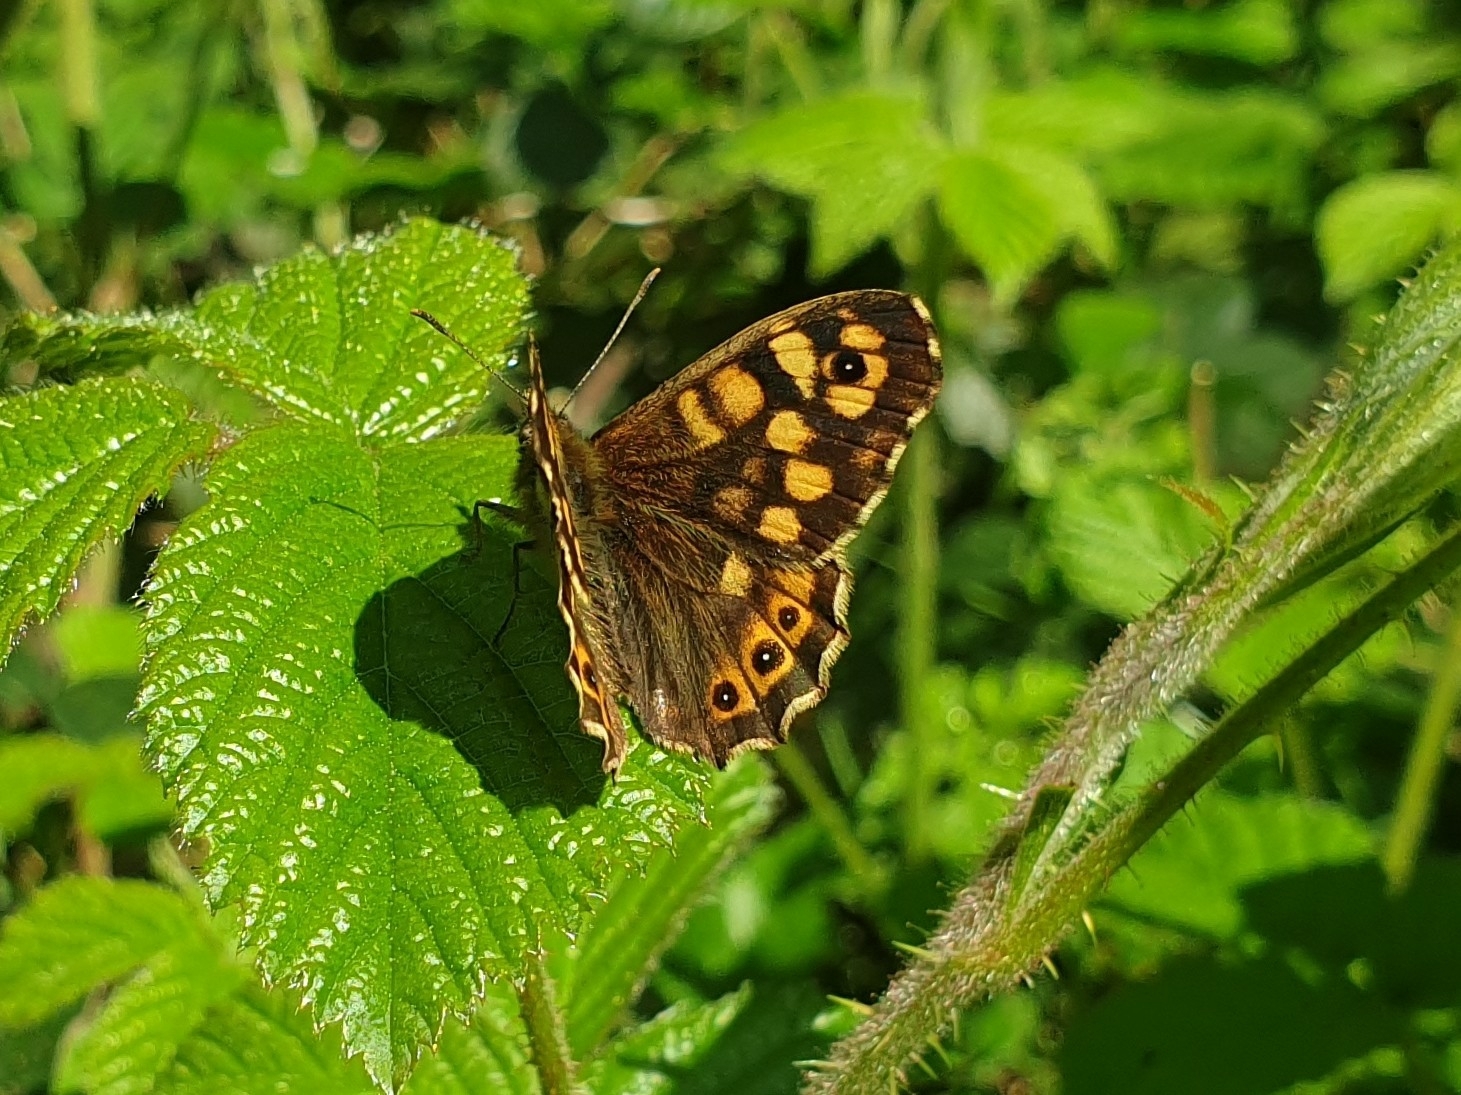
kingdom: Animalia
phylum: Arthropoda
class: Insecta
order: Lepidoptera
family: Nymphalidae
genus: Pararge
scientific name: Pararge aegeria
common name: Speckled wood
